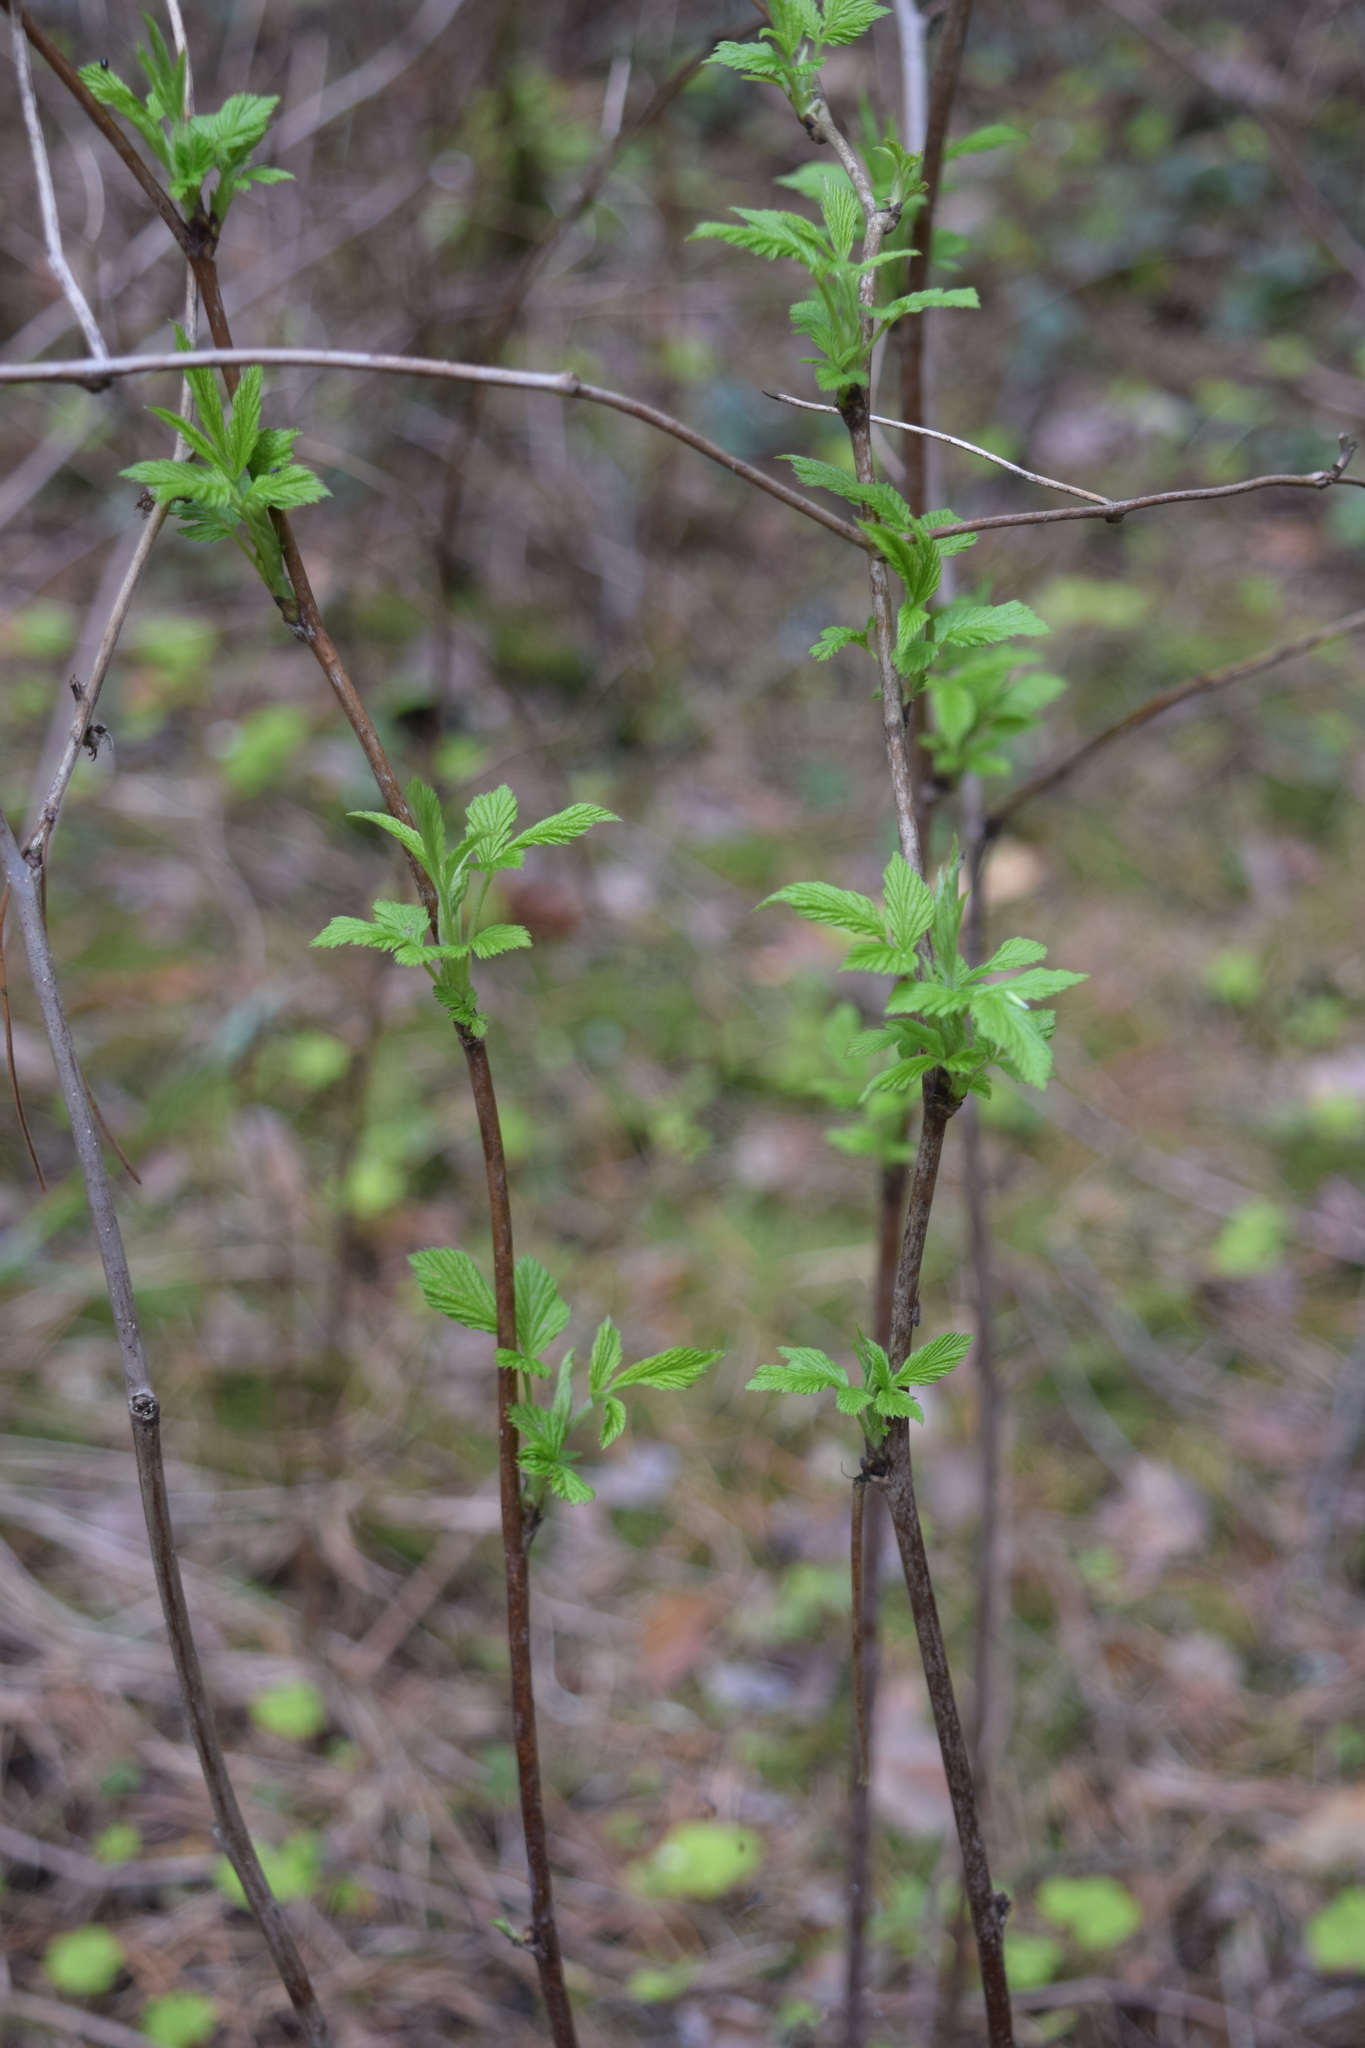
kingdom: Plantae
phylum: Tracheophyta
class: Magnoliopsida
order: Rosales
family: Rosaceae
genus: Rubus
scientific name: Rubus idaeus
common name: Raspberry
